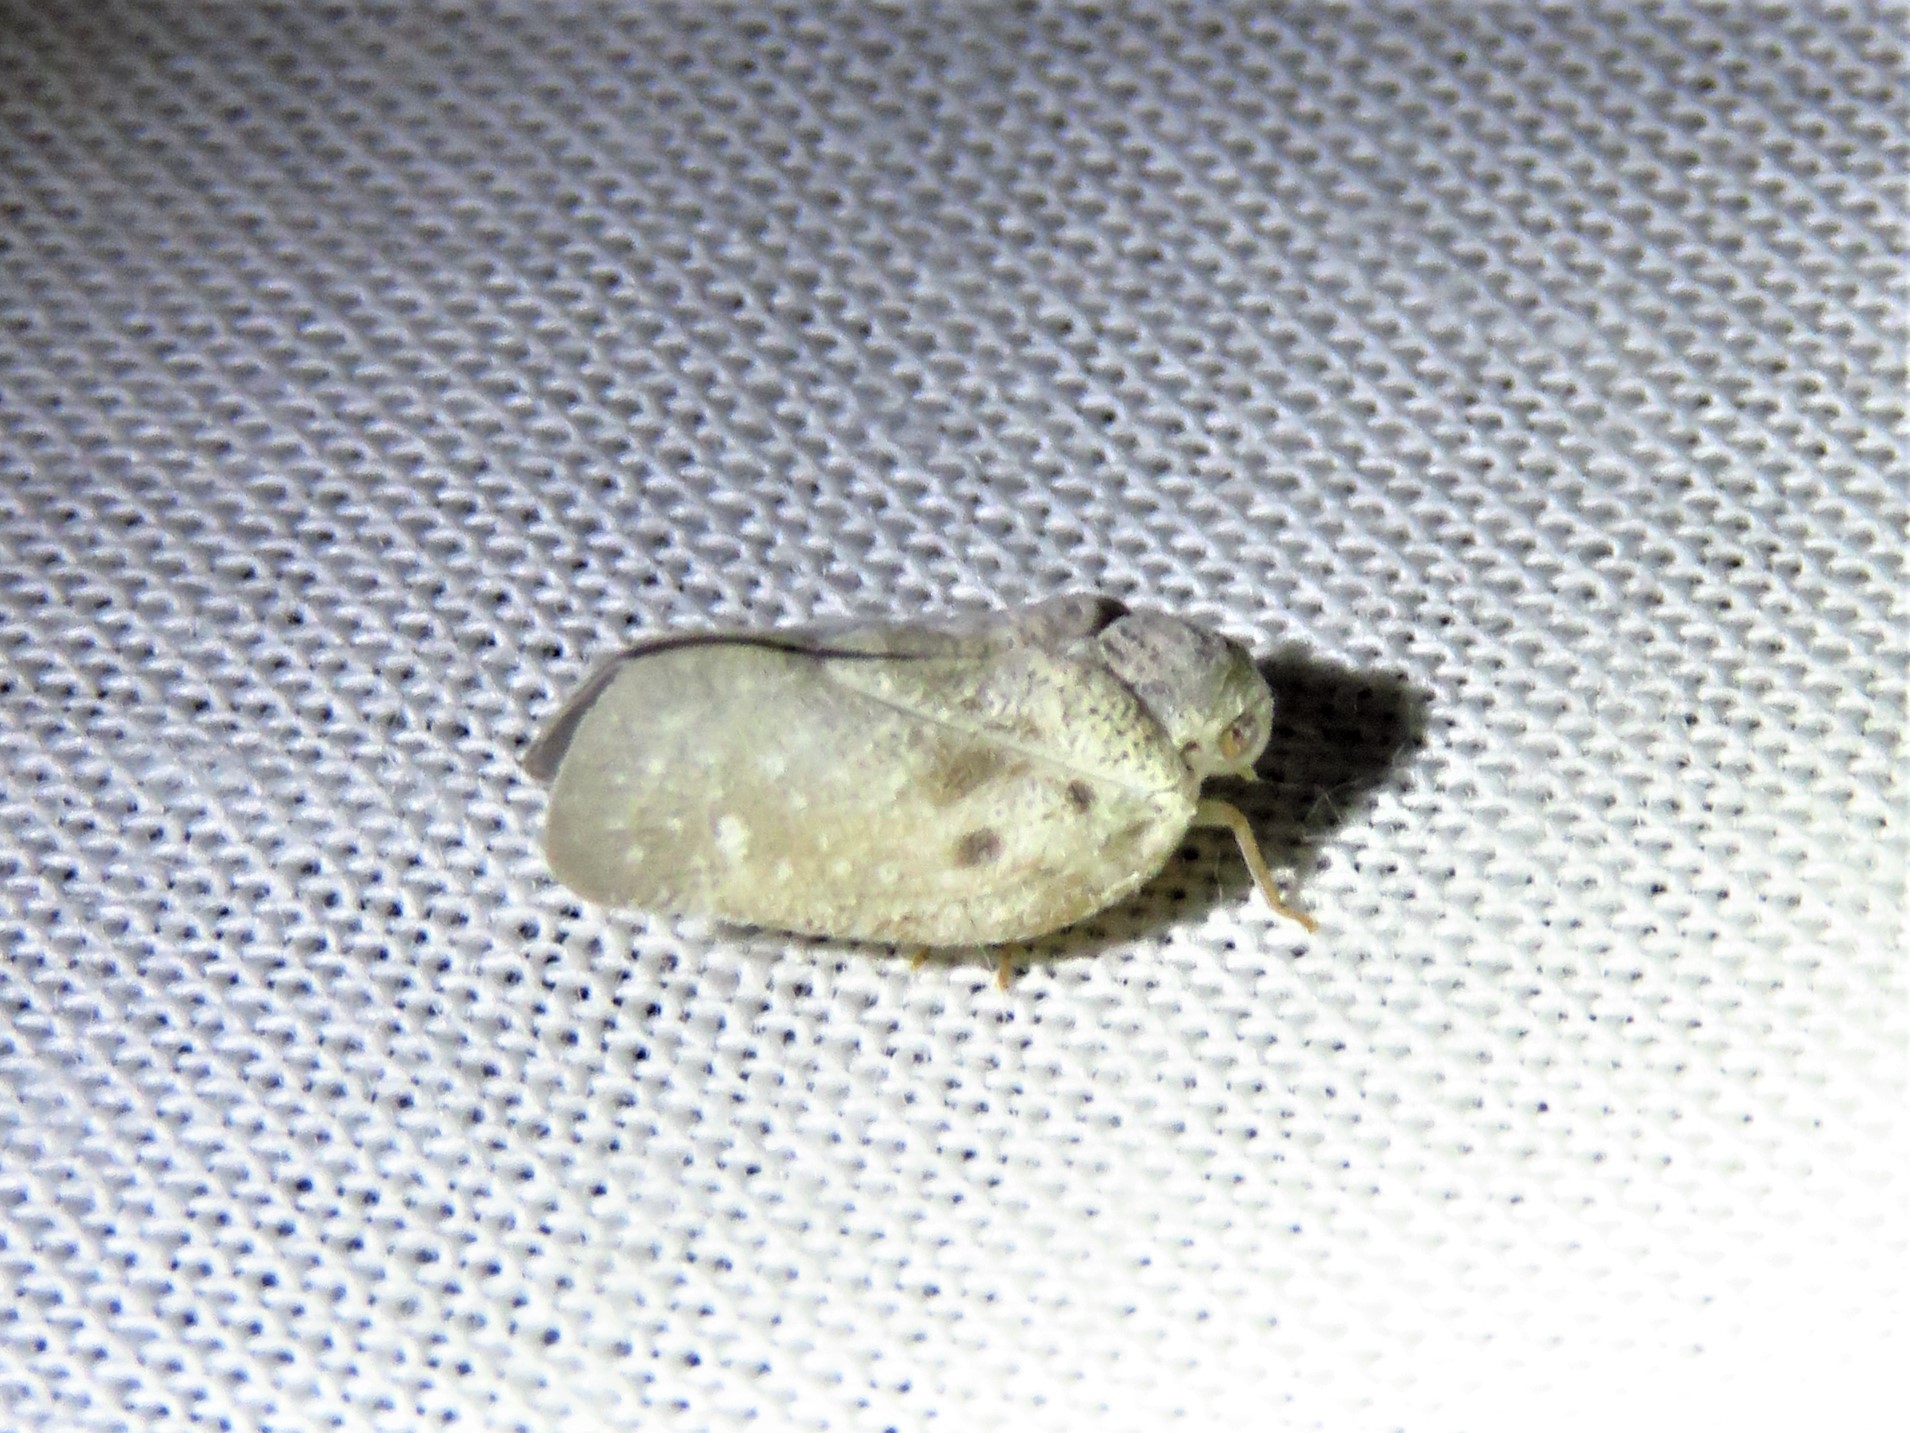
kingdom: Animalia
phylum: Arthropoda
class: Insecta
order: Hemiptera
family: Flatidae
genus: Metcalfa
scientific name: Metcalfa pruinosa
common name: Citrus flatid planthopper
